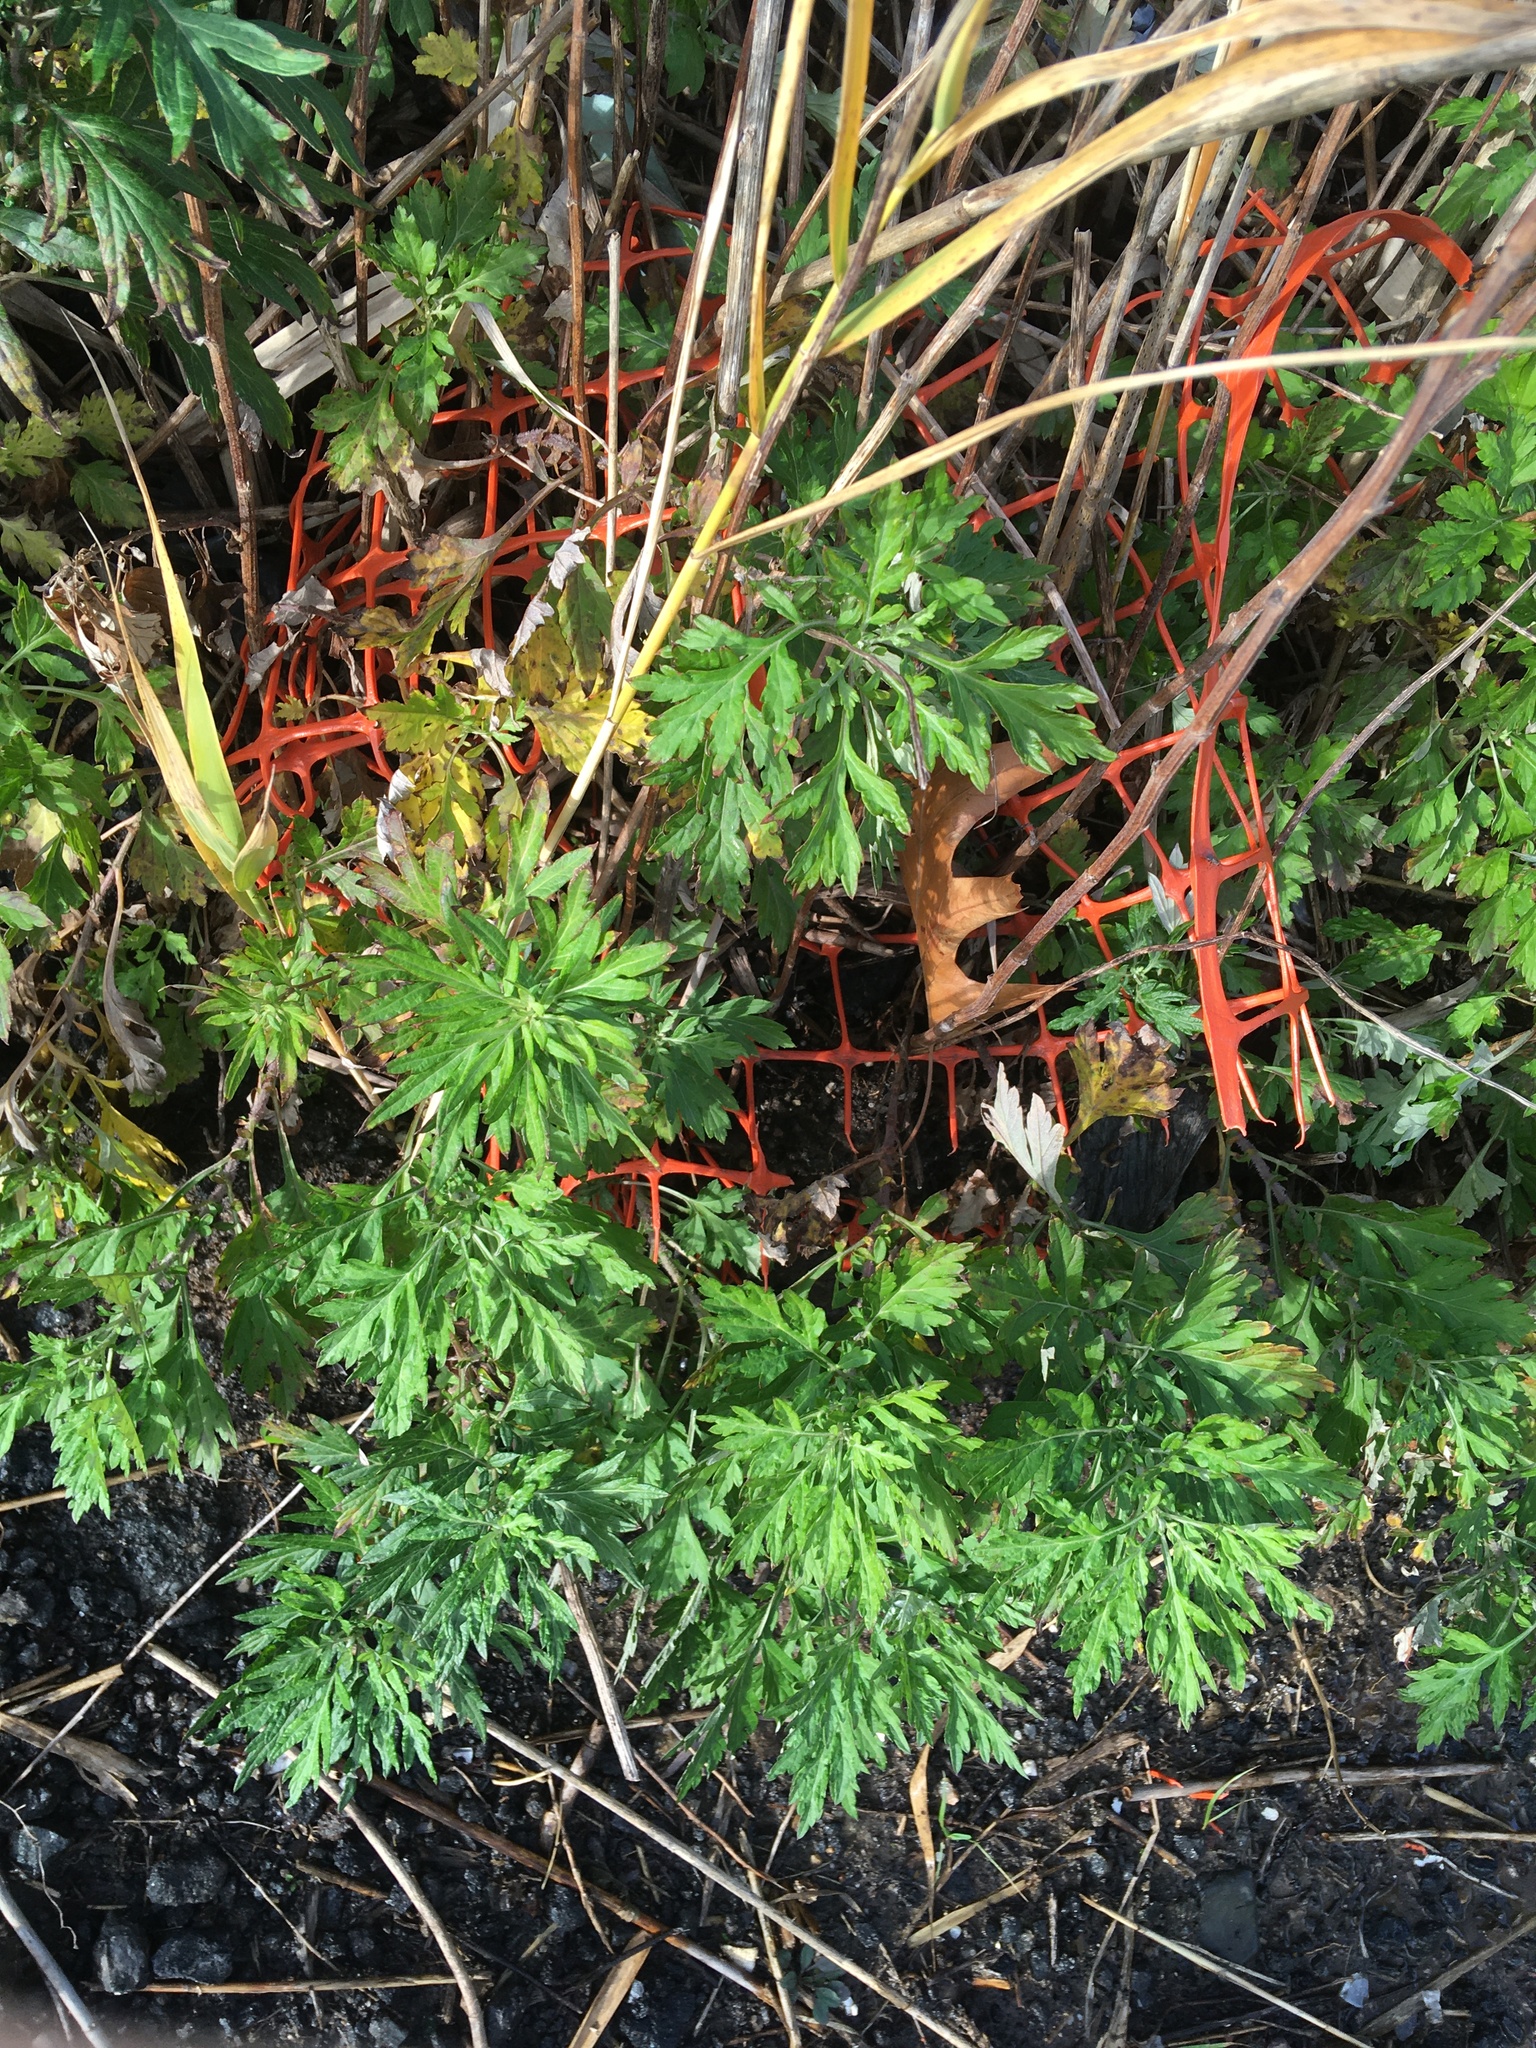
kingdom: Plantae
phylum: Tracheophyta
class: Magnoliopsida
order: Asterales
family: Asteraceae
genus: Artemisia
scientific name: Artemisia vulgaris
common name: Mugwort
